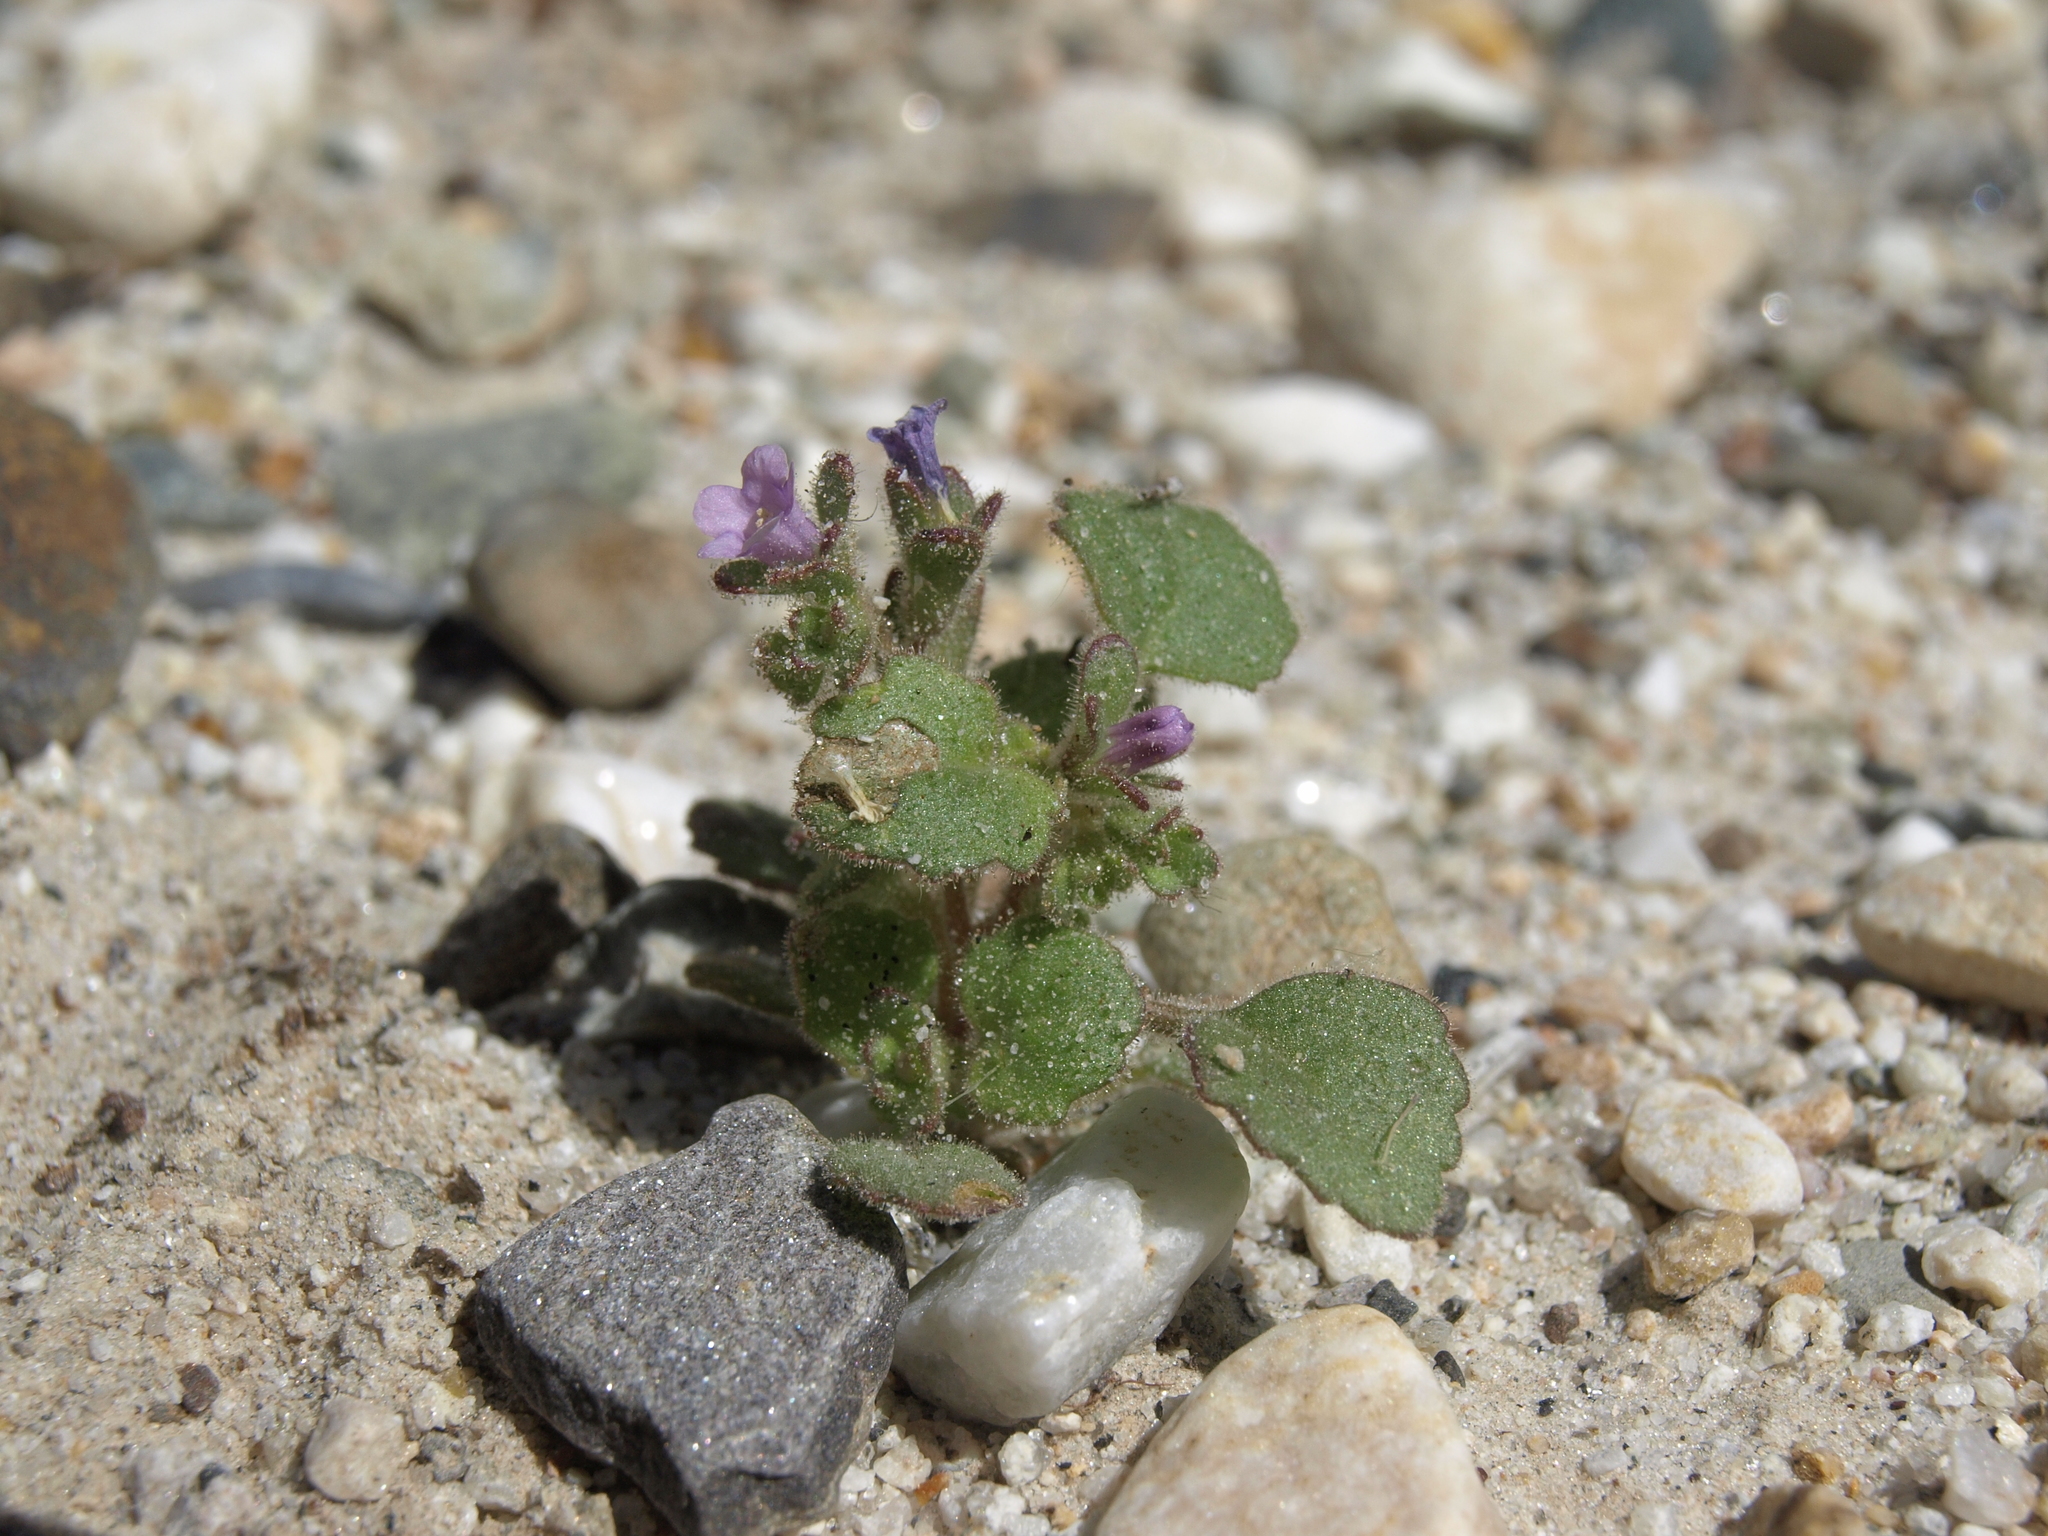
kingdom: Plantae
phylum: Tracheophyta
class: Magnoliopsida
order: Boraginales
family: Hydrophyllaceae
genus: Phacelia
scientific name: Phacelia peirsoniana
